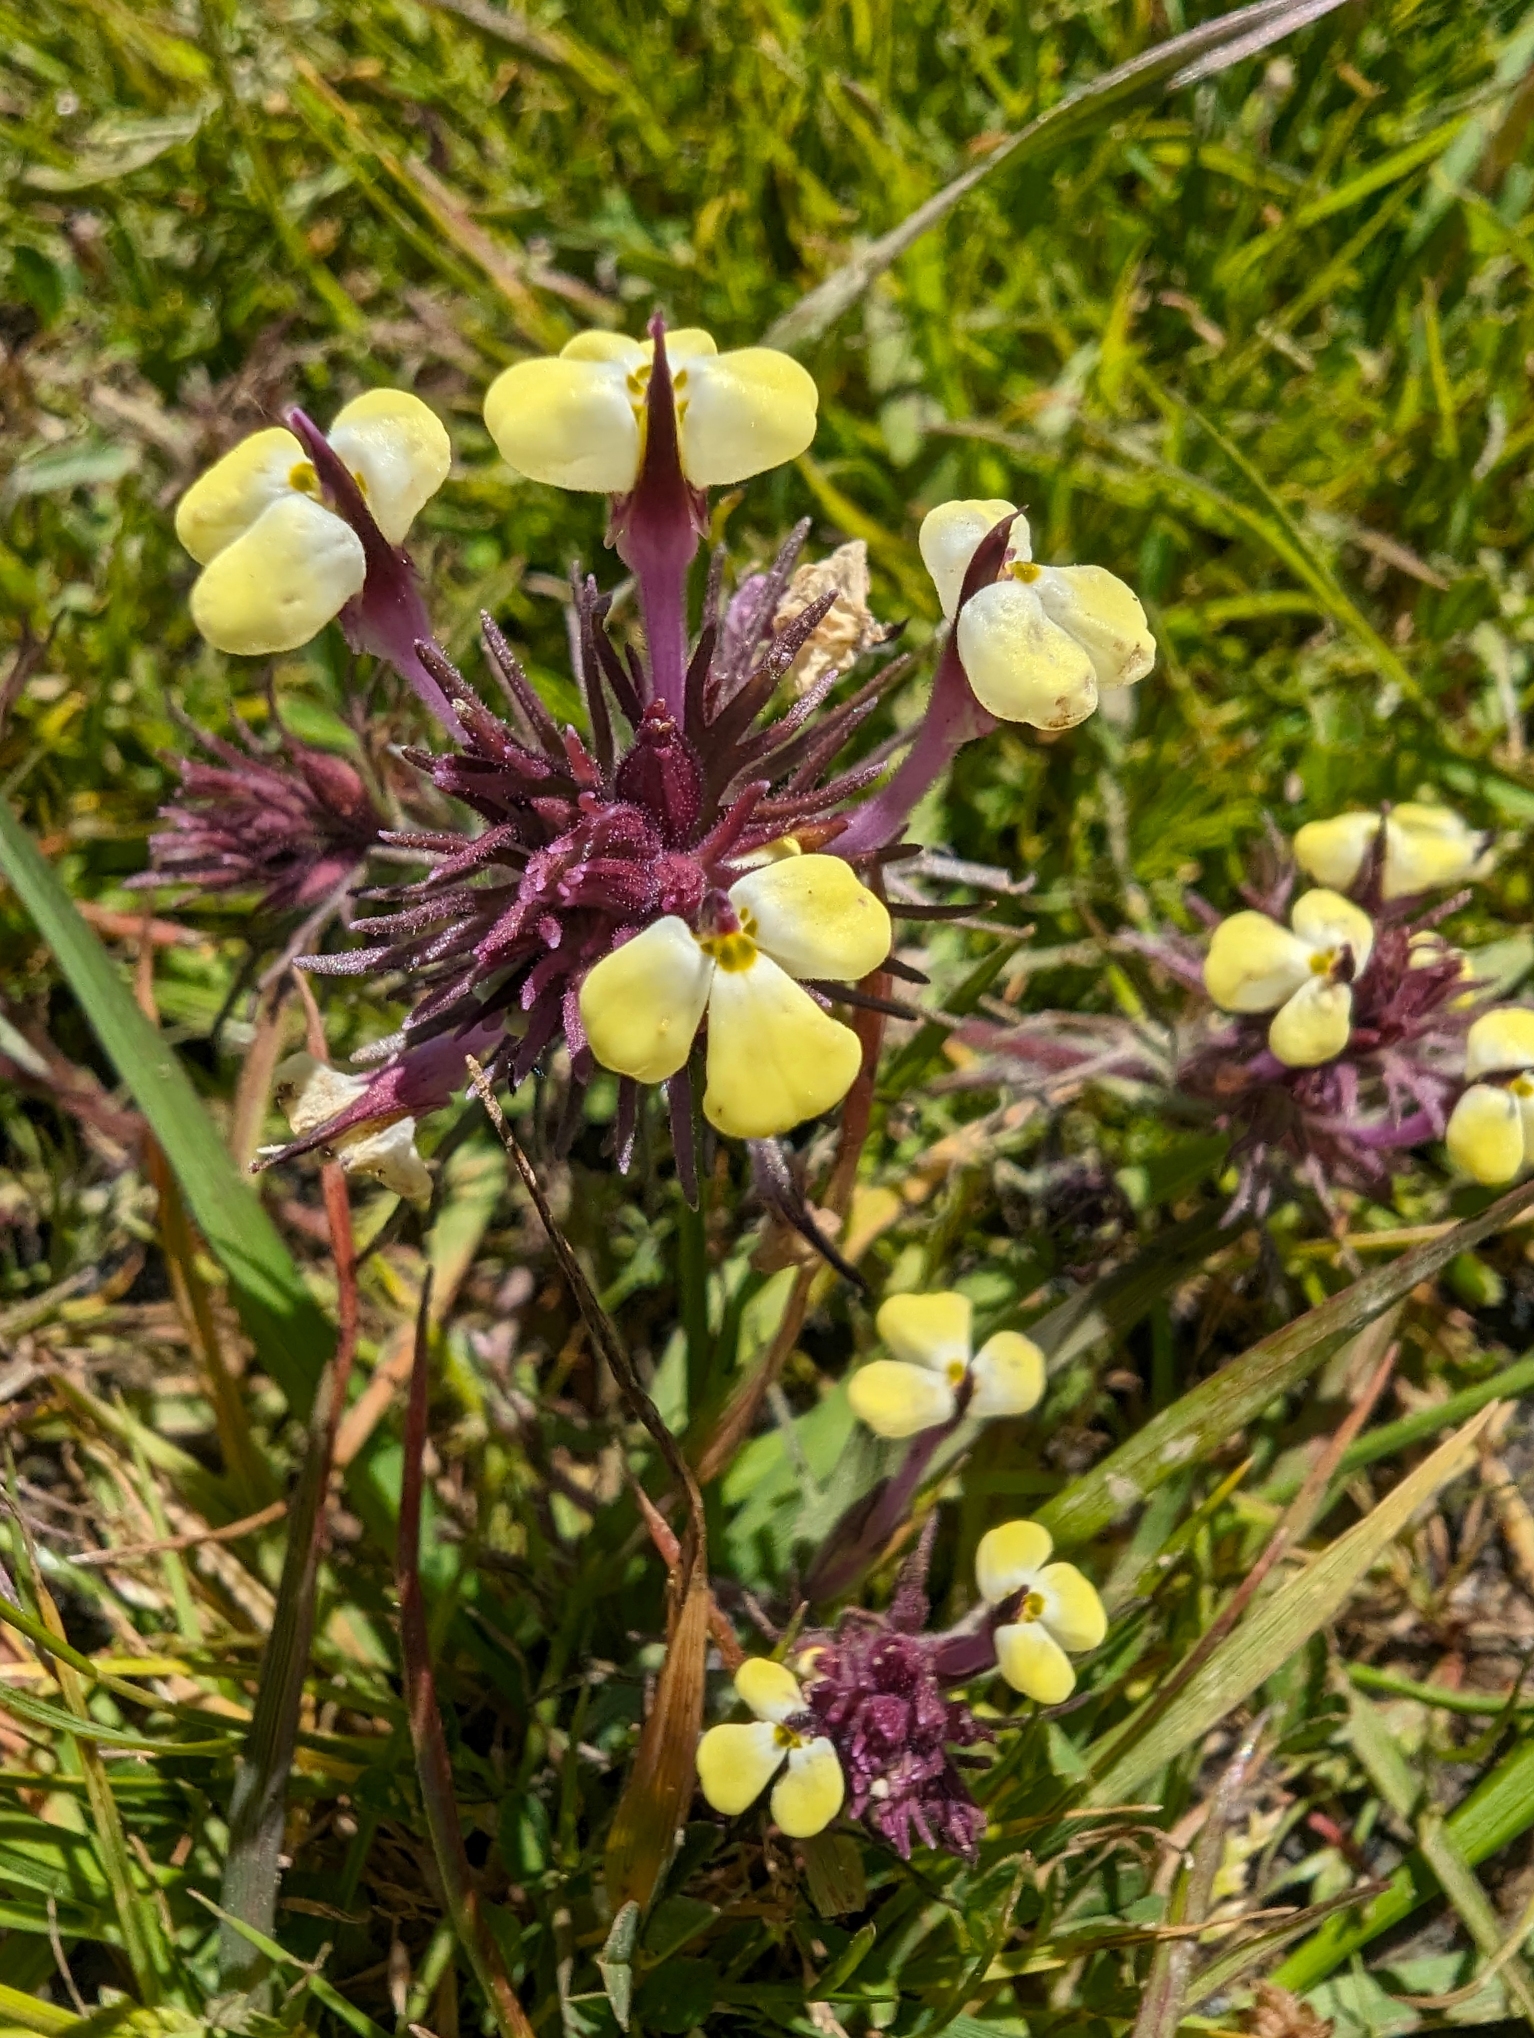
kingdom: Plantae
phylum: Tracheophyta
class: Magnoliopsida
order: Lamiales
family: Orobanchaceae
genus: Triphysaria
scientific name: Triphysaria eriantha
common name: Johnny-tuck
